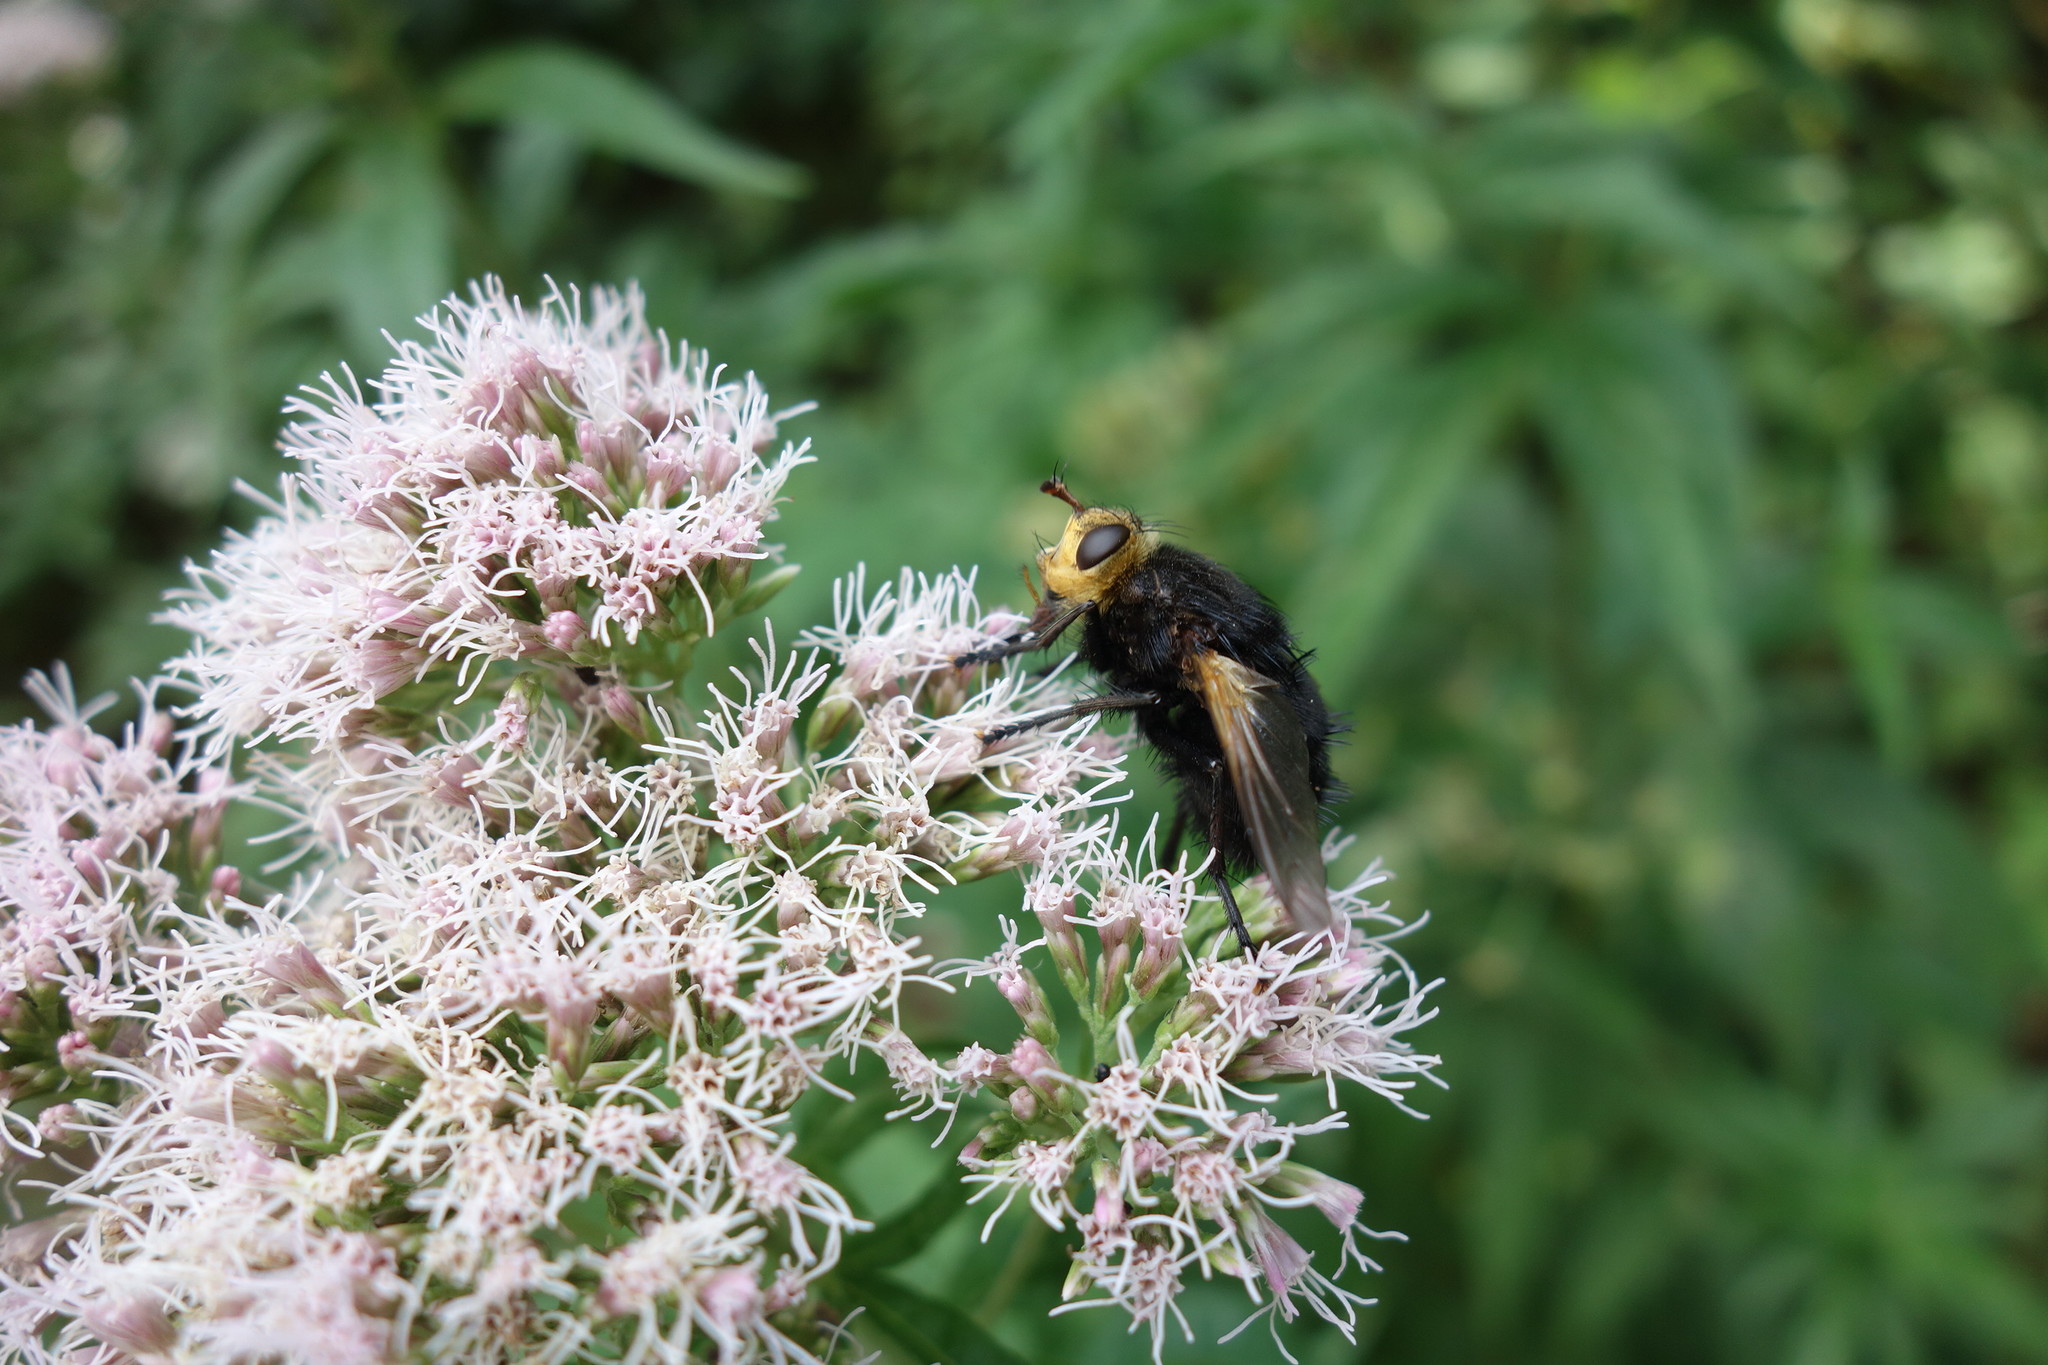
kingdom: Animalia
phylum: Arthropoda
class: Insecta
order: Diptera
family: Tachinidae
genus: Tachina
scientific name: Tachina grossa
